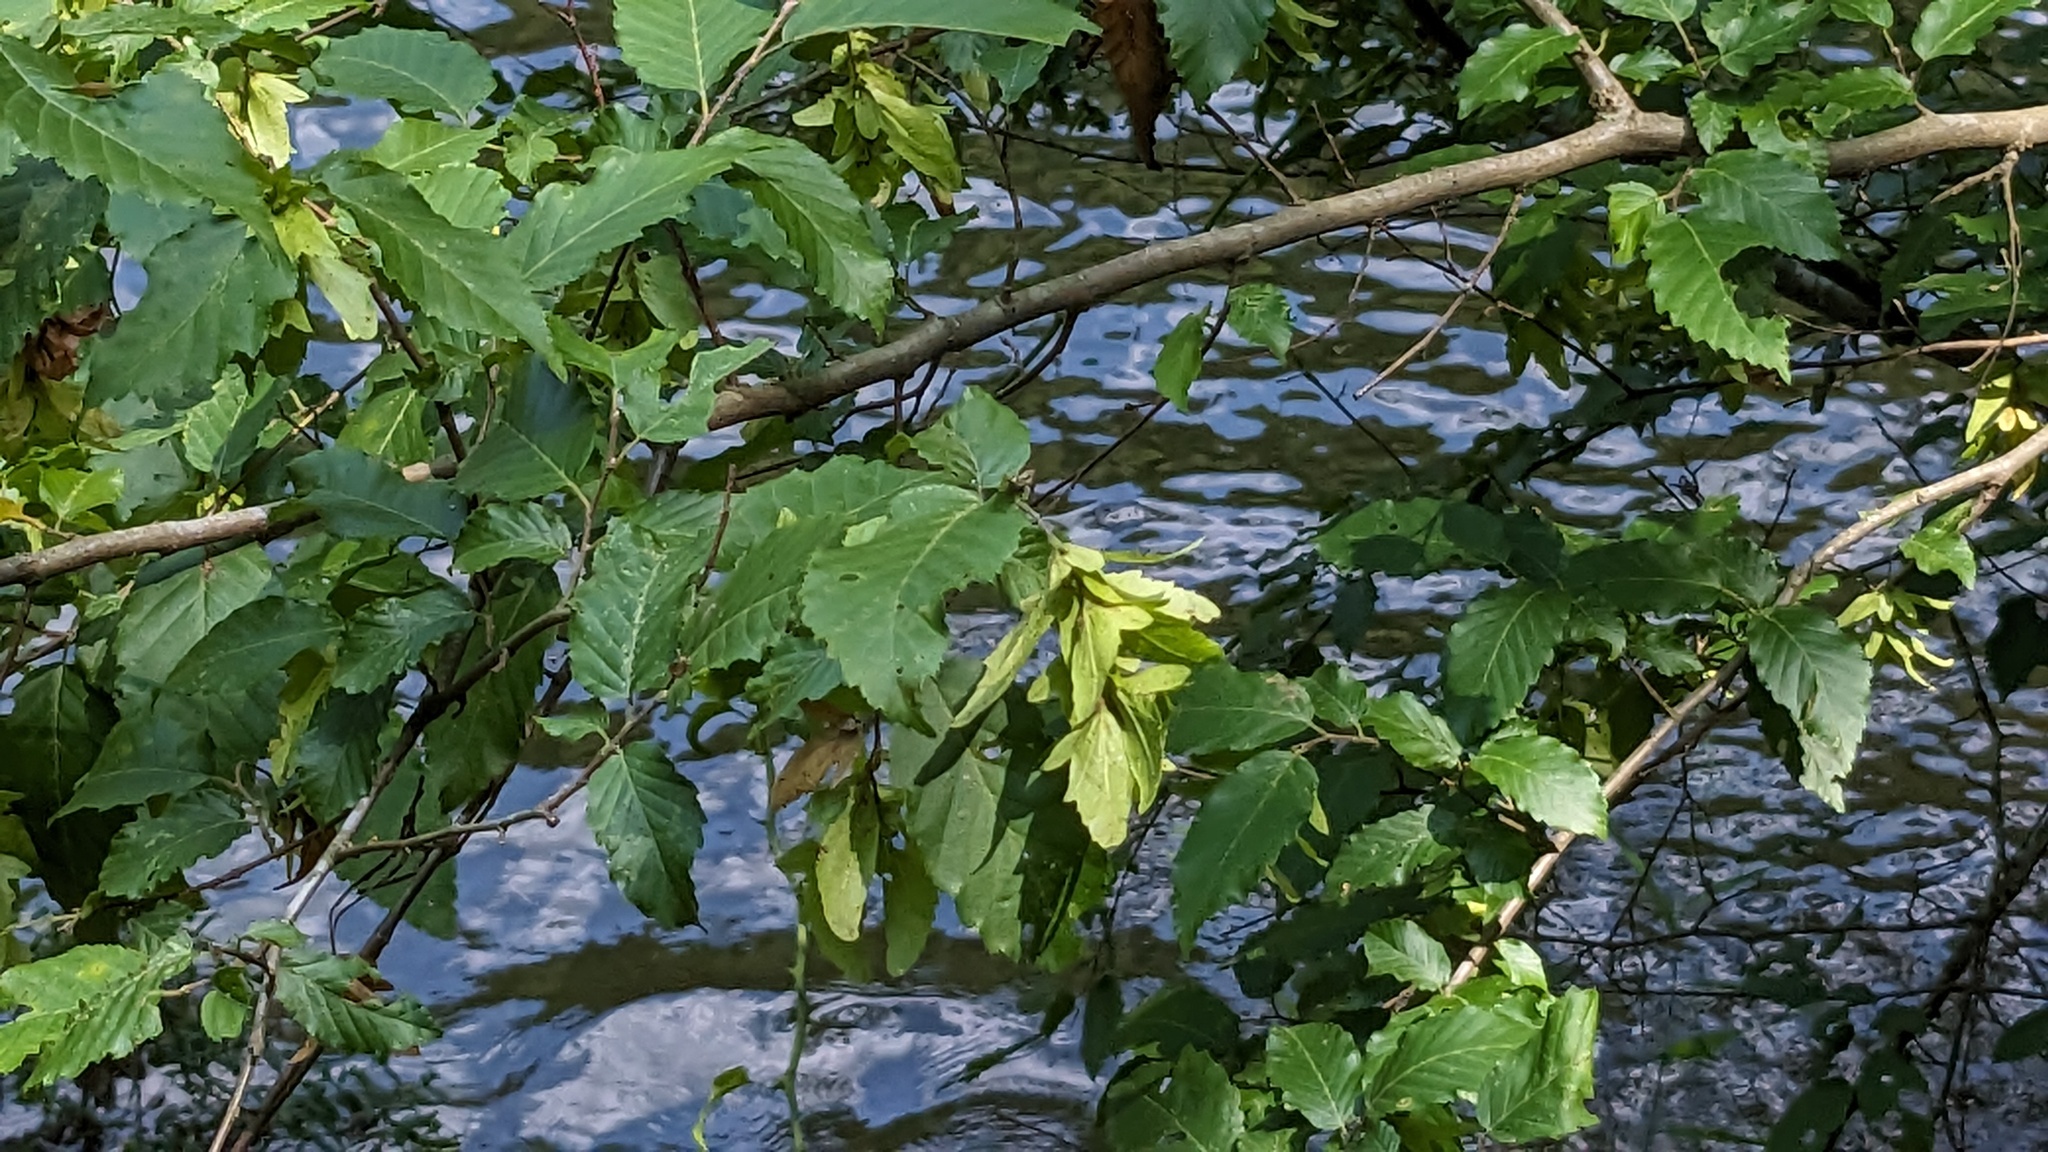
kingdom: Plantae
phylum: Tracheophyta
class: Magnoliopsida
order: Fagales
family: Betulaceae
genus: Carpinus
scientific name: Carpinus caroliniana
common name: American hornbeam
